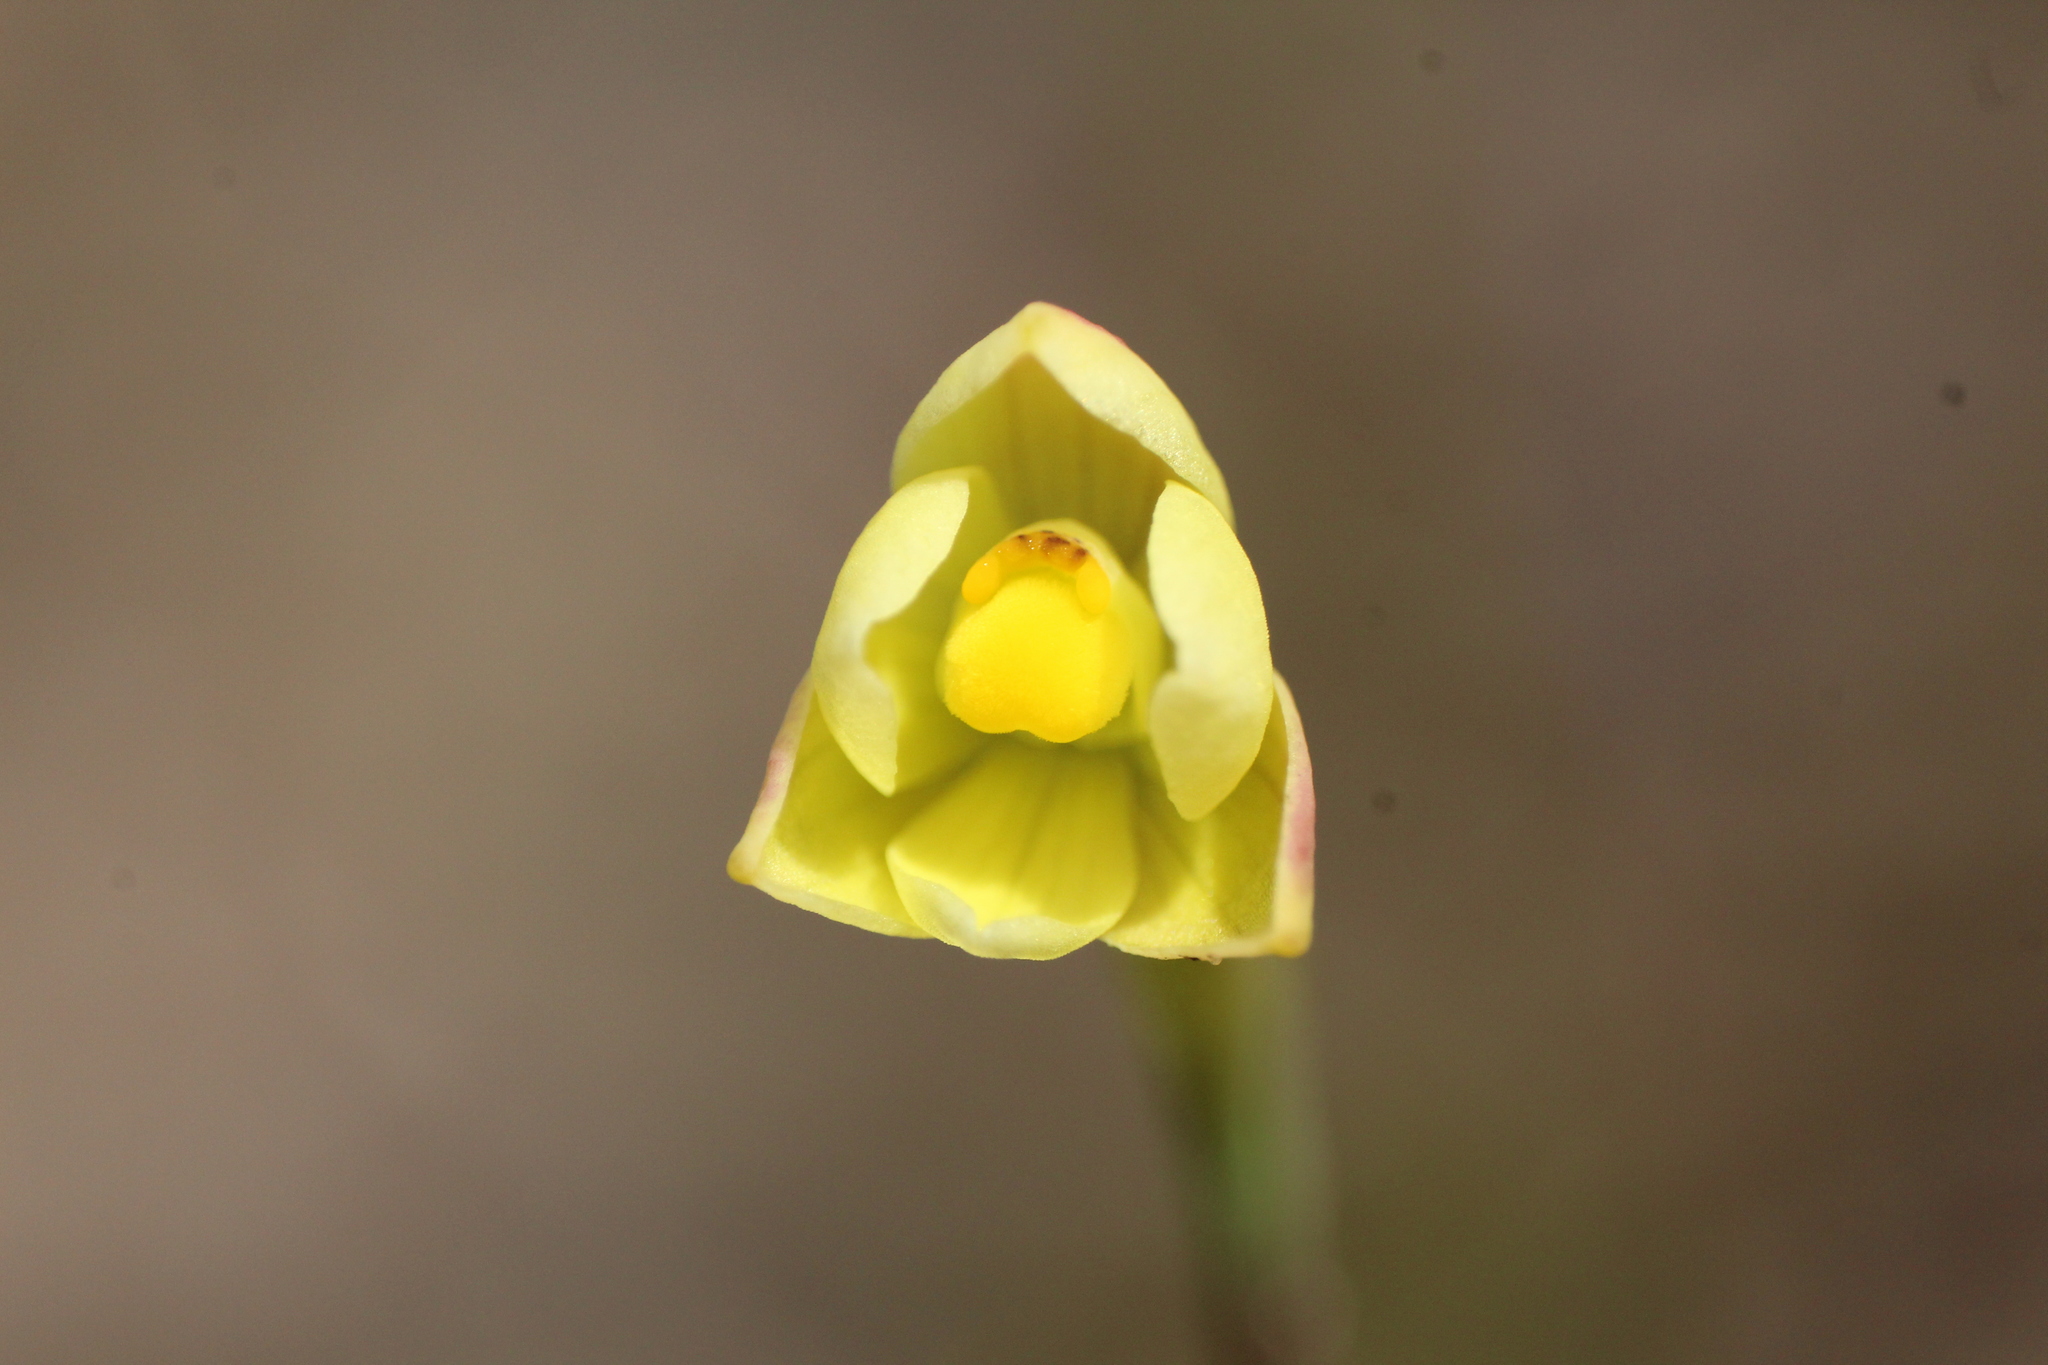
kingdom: Plantae
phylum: Tracheophyta
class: Liliopsida
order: Asparagales
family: Orchidaceae
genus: Thelymitra
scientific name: Thelymitra flexuosa
